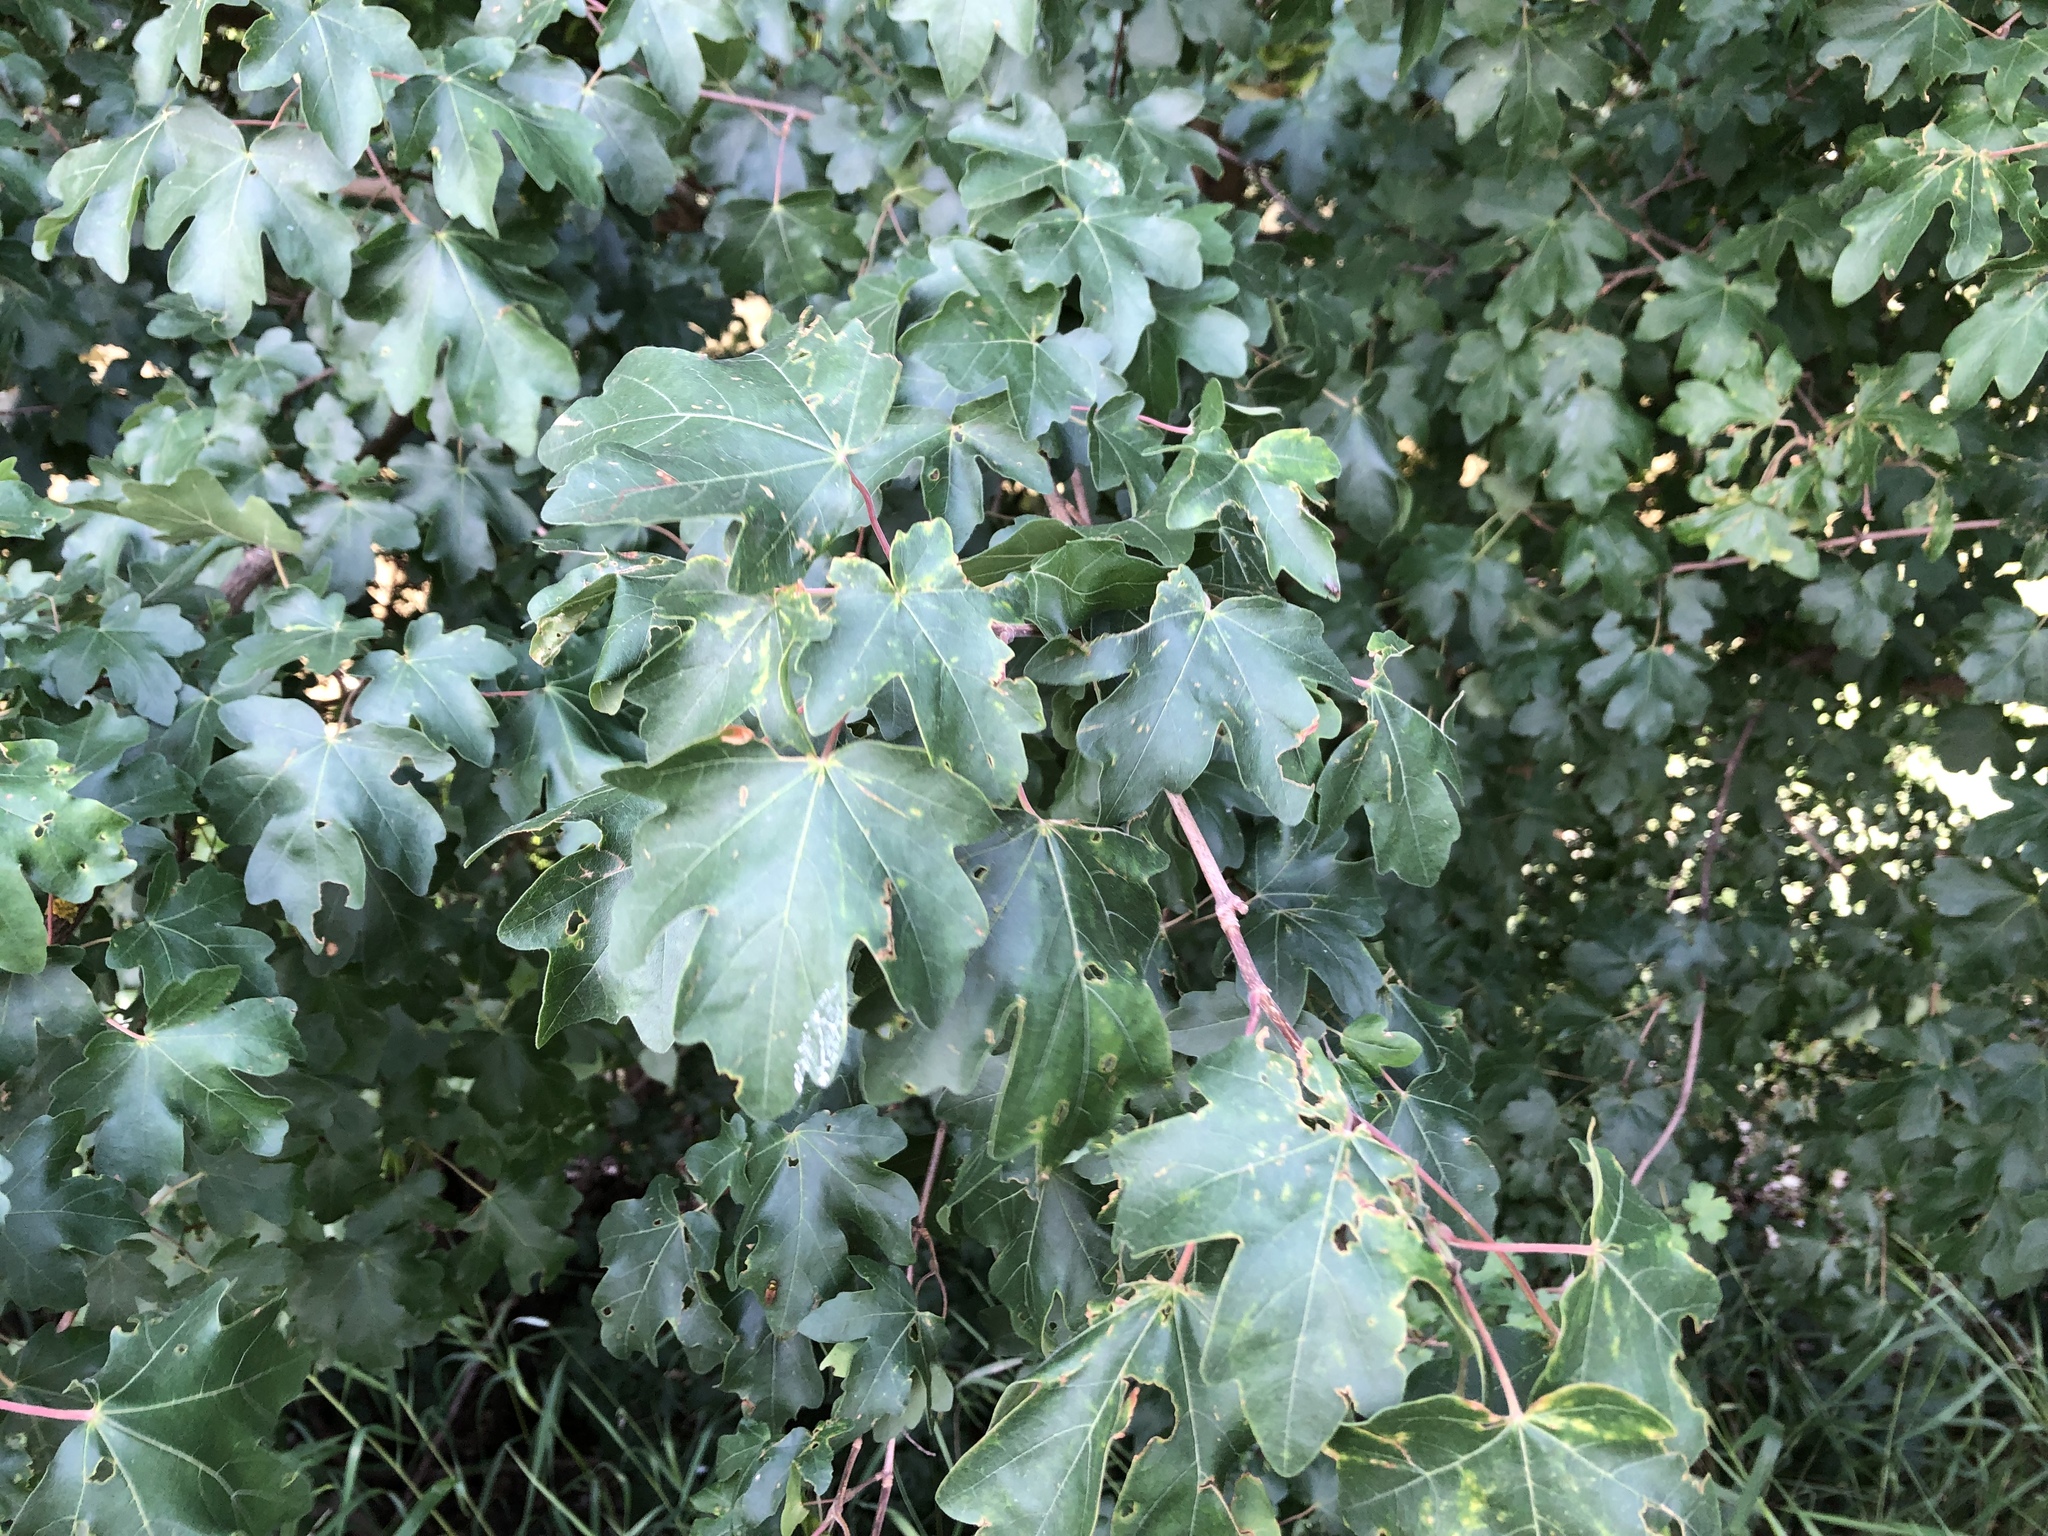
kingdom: Plantae
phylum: Tracheophyta
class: Magnoliopsida
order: Sapindales
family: Sapindaceae
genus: Acer
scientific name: Acer campestre
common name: Field maple
